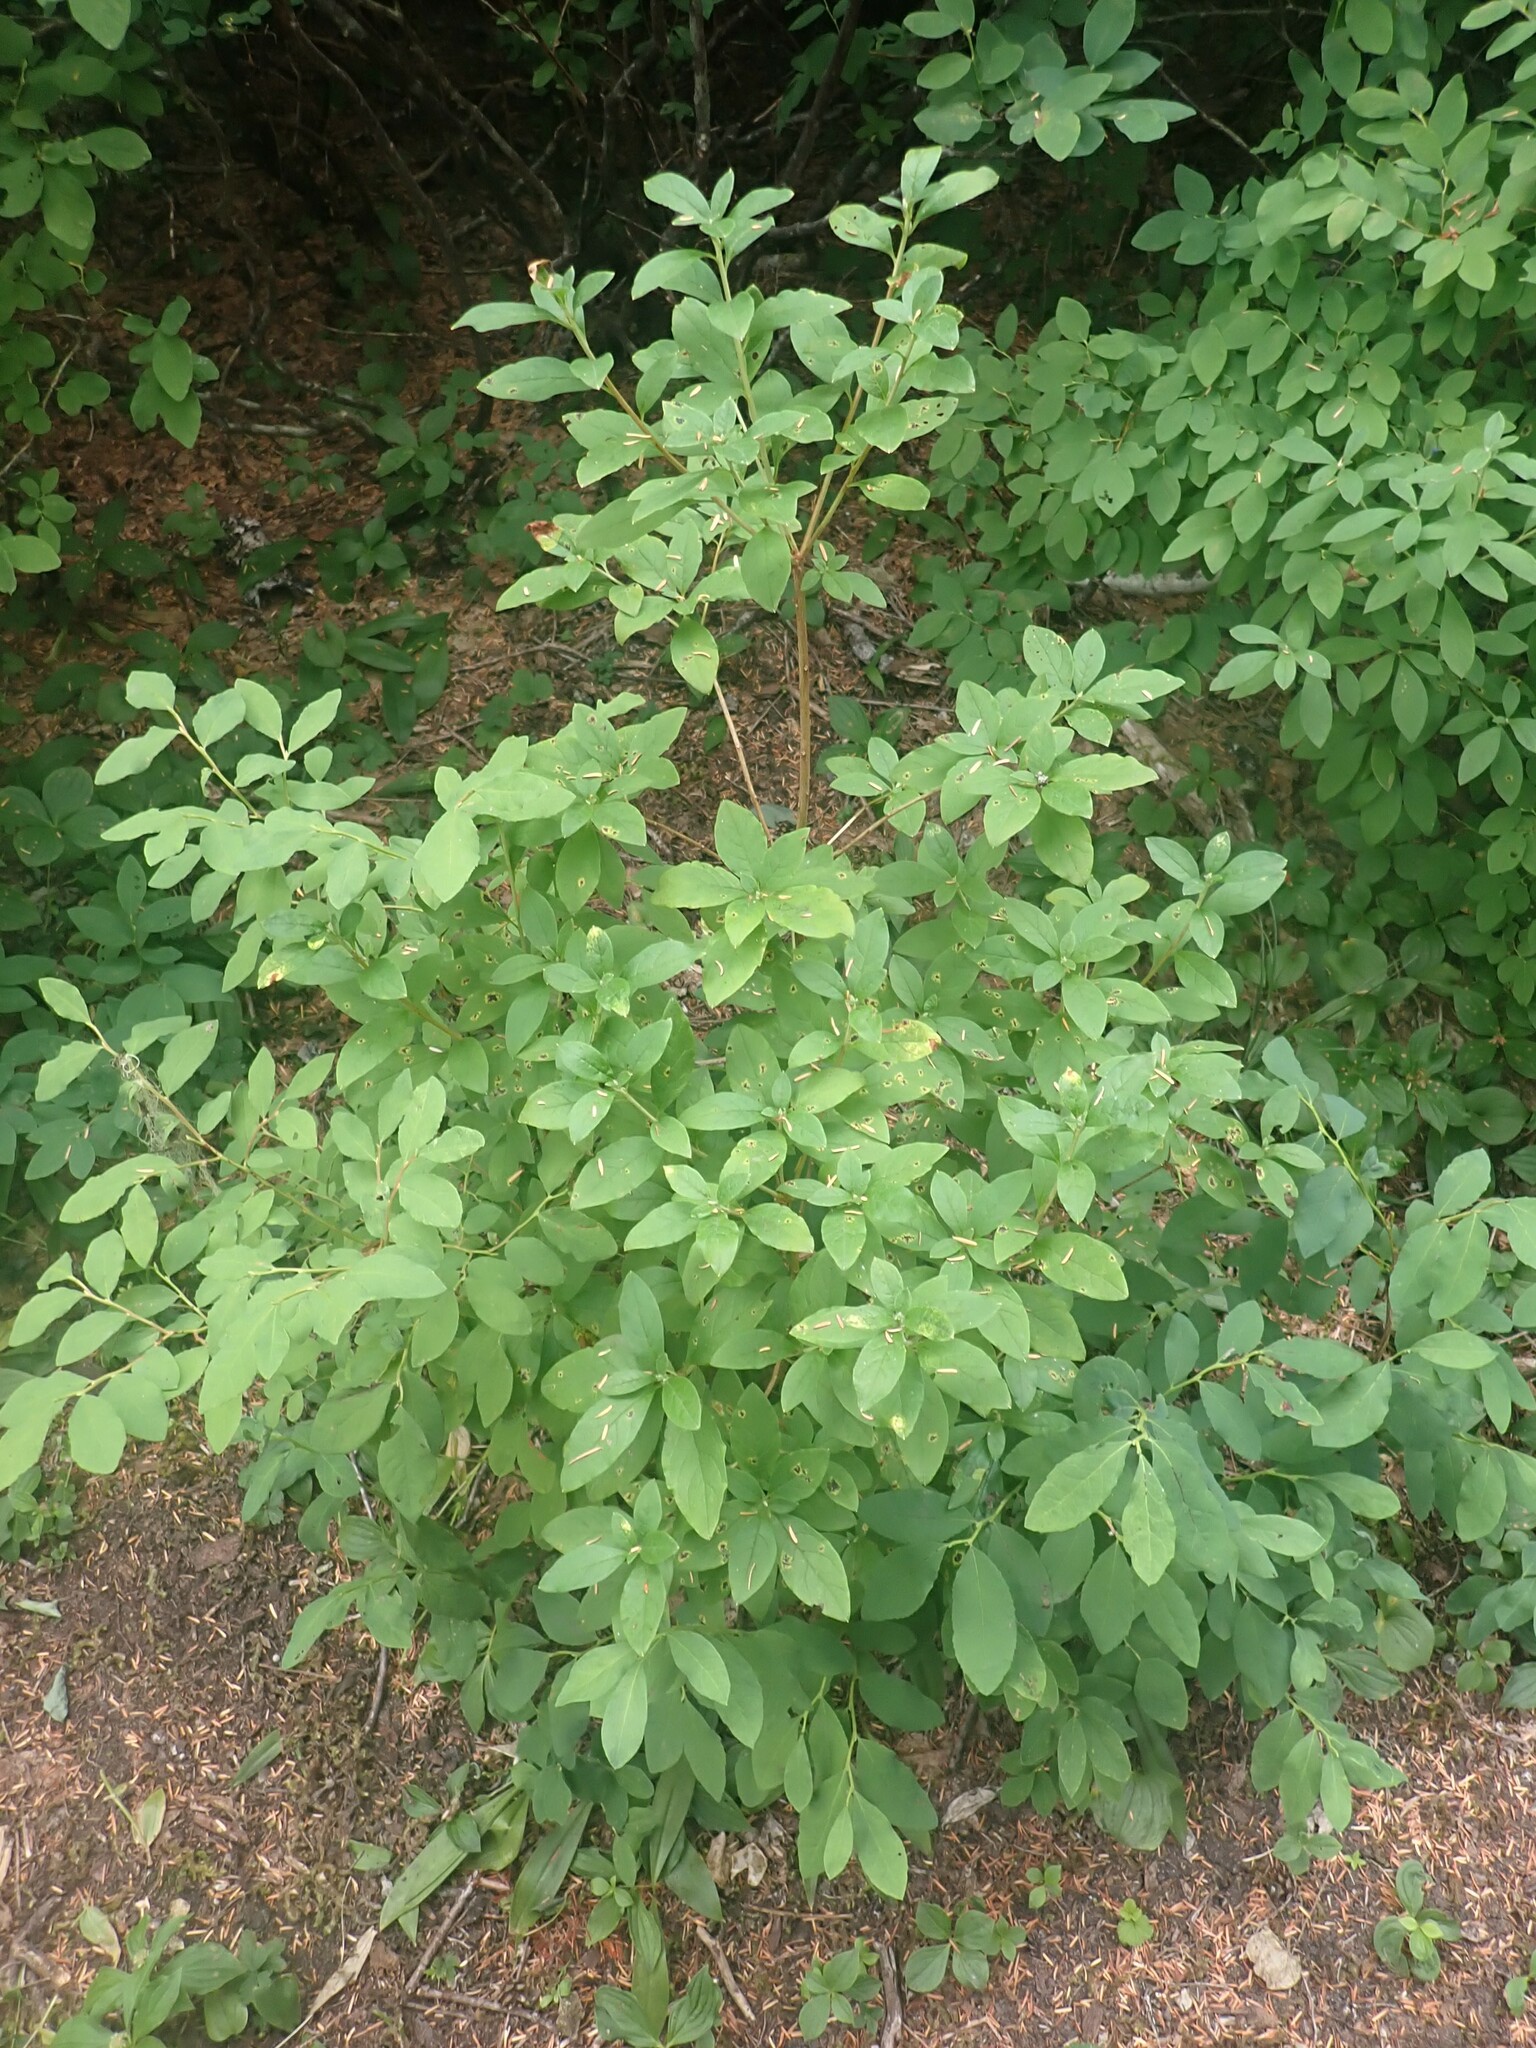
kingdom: Plantae
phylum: Tracheophyta
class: Magnoliopsida
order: Ericales
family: Ericaceae
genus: Rhododendron
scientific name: Rhododendron menziesii
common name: Pacific menziesia
